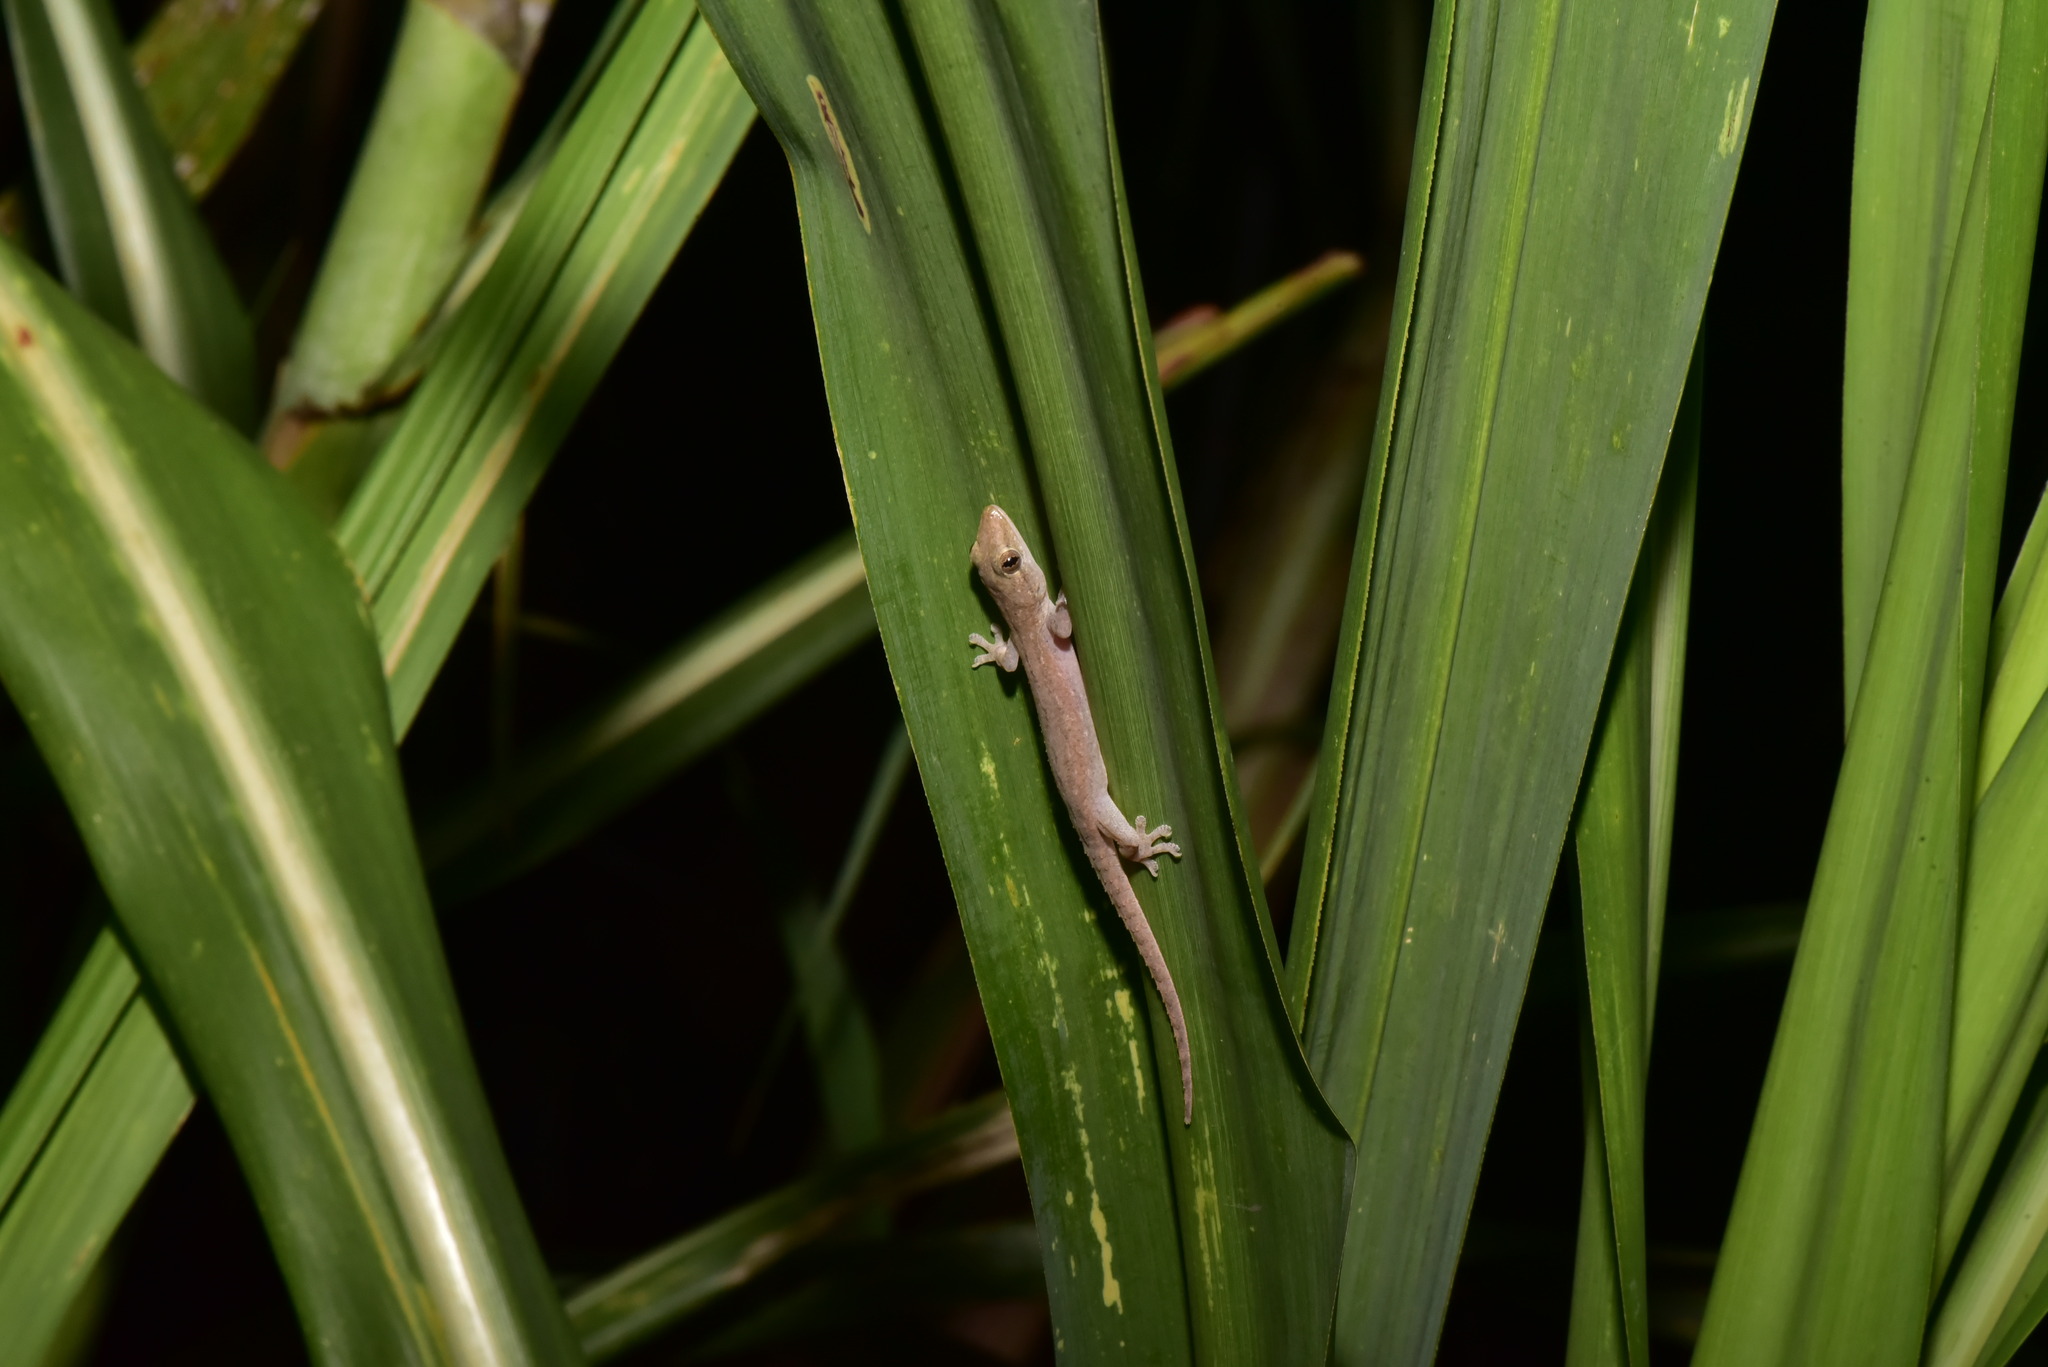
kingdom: Animalia
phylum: Chordata
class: Squamata
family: Gekkonidae
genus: Hemidactylus
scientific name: Hemidactylus frenatus
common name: Common house gecko
